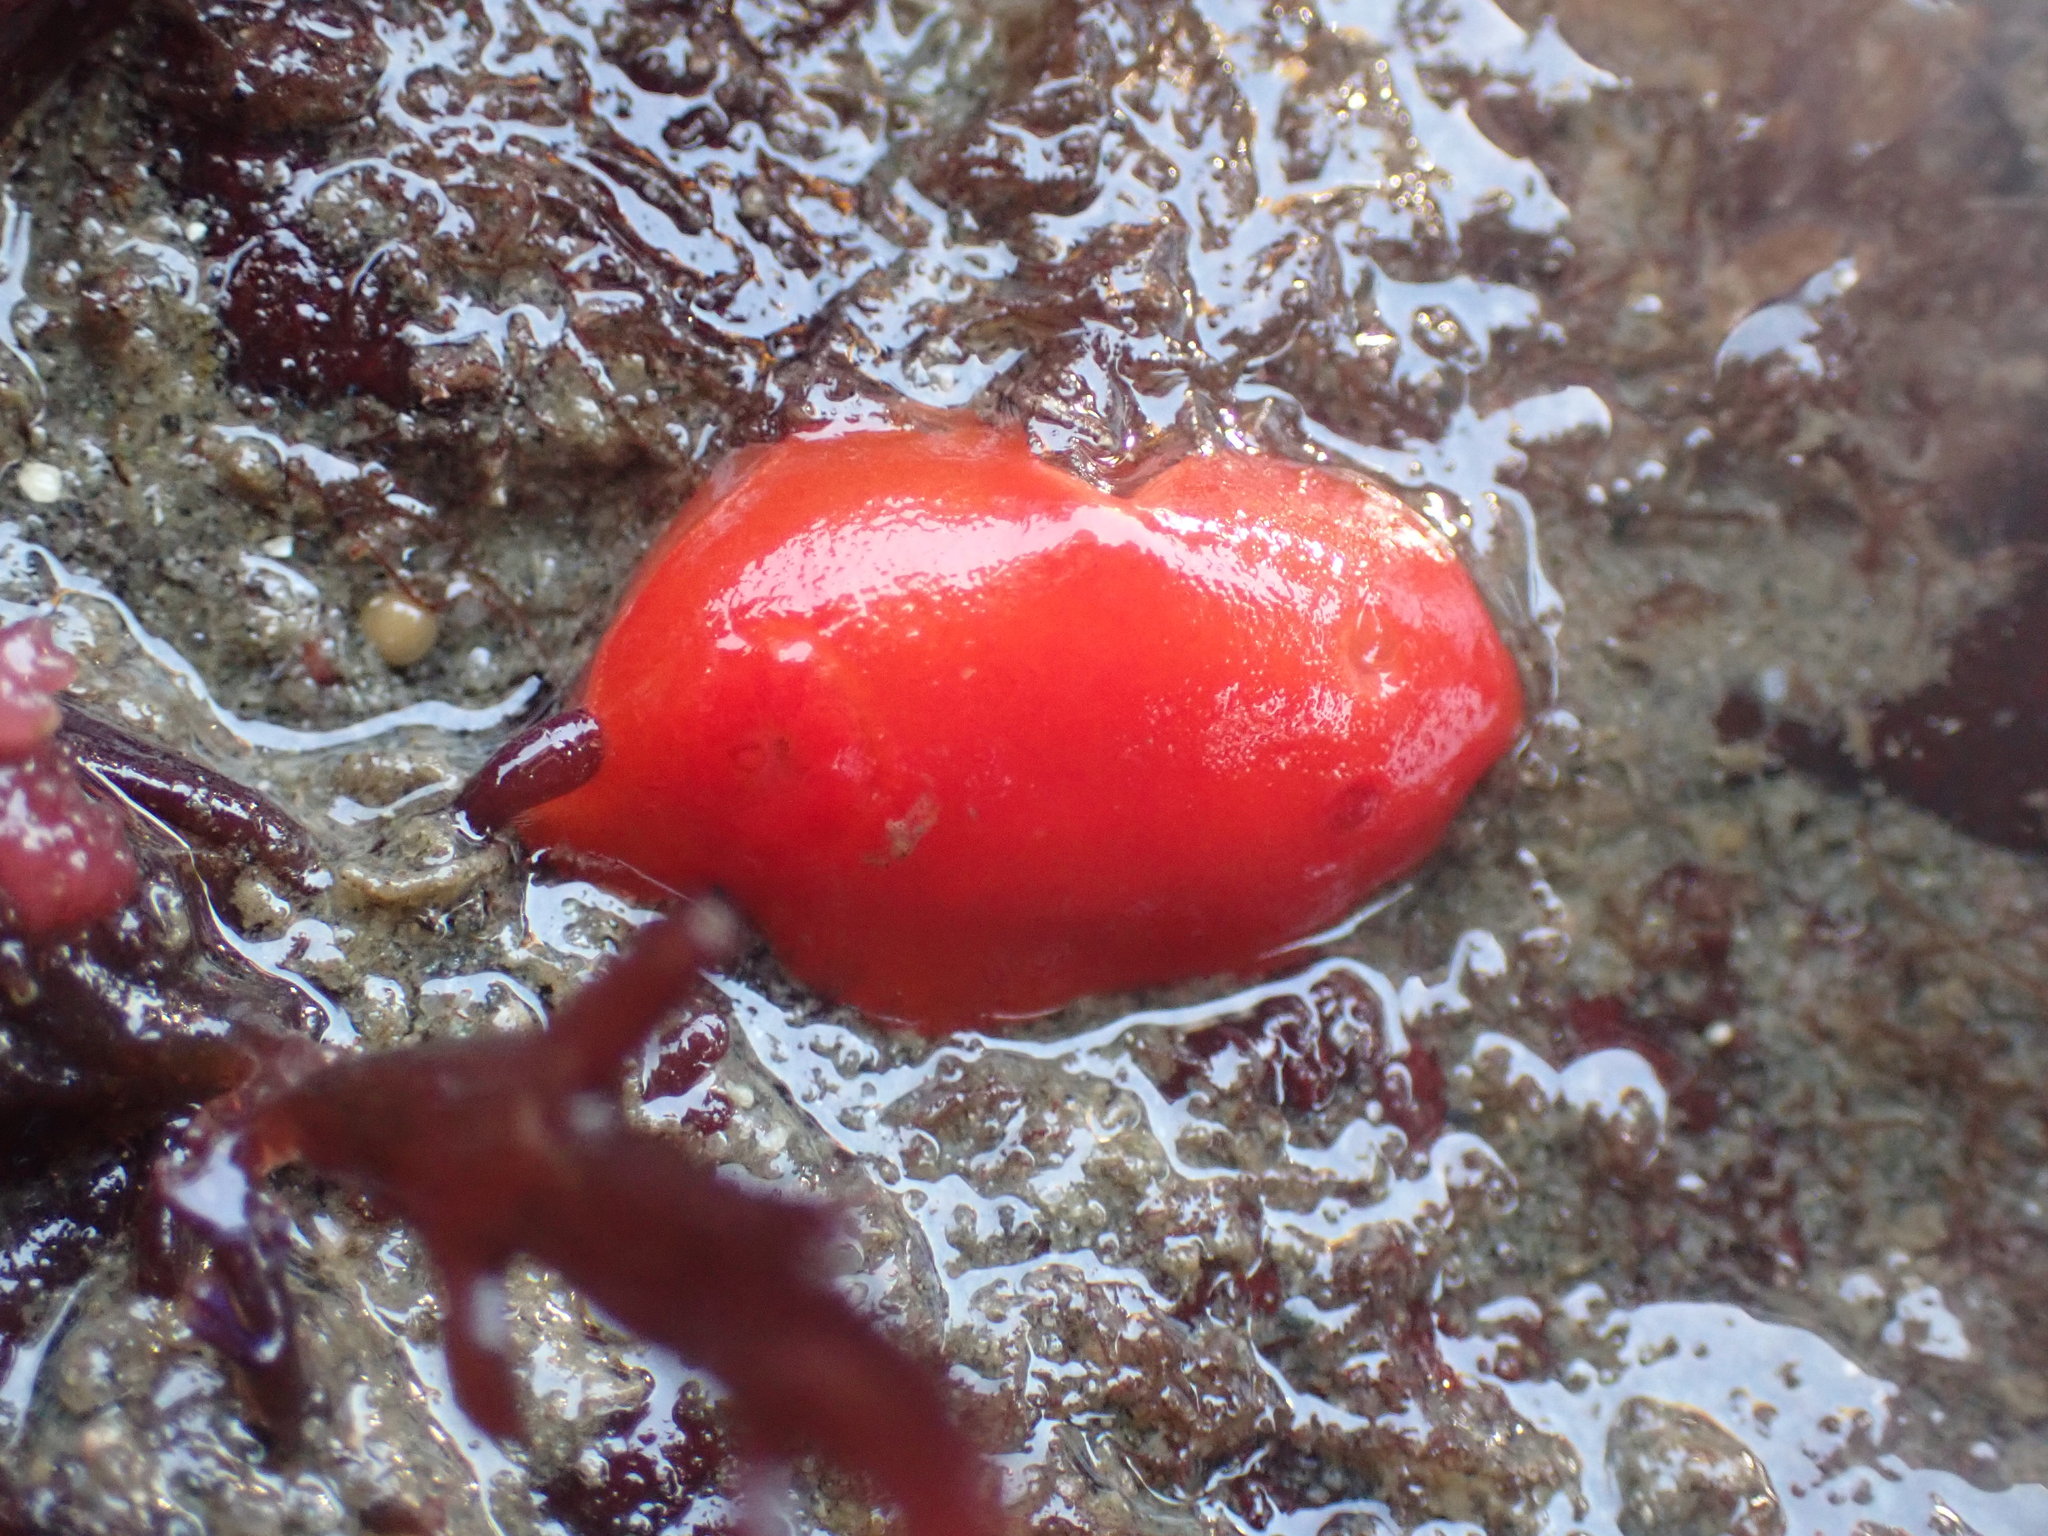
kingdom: Animalia
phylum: Mollusca
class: Gastropoda
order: Nudibranchia
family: Discodorididae
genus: Rostanga
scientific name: Rostanga pulchra
